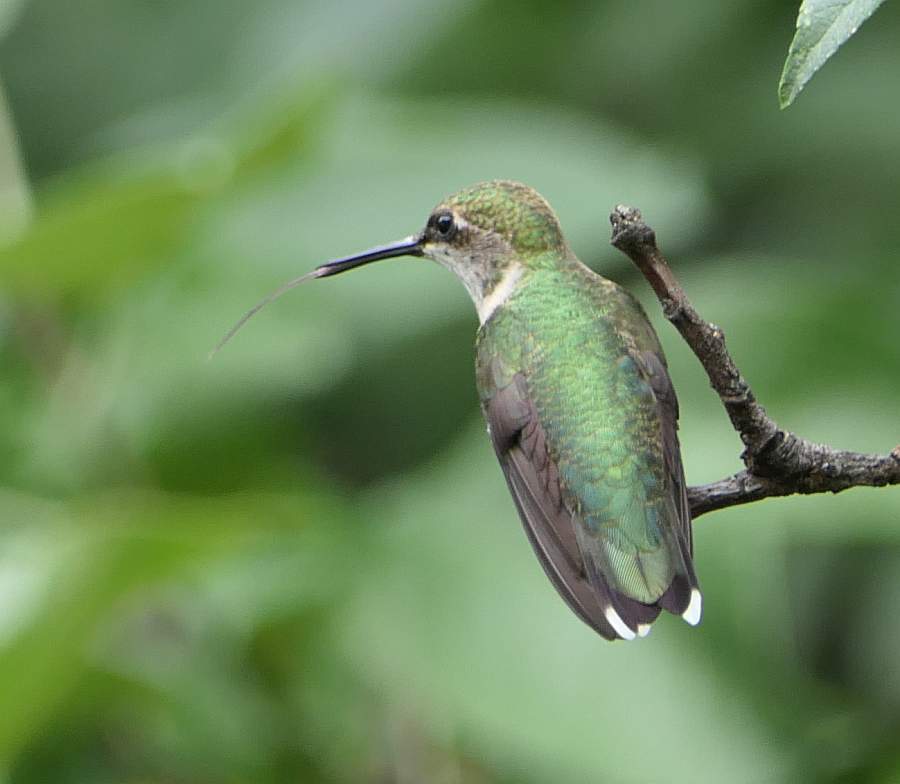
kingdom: Animalia
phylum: Chordata
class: Aves
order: Apodiformes
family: Trochilidae
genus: Archilochus
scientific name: Archilochus colubris
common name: Ruby-throated hummingbird
